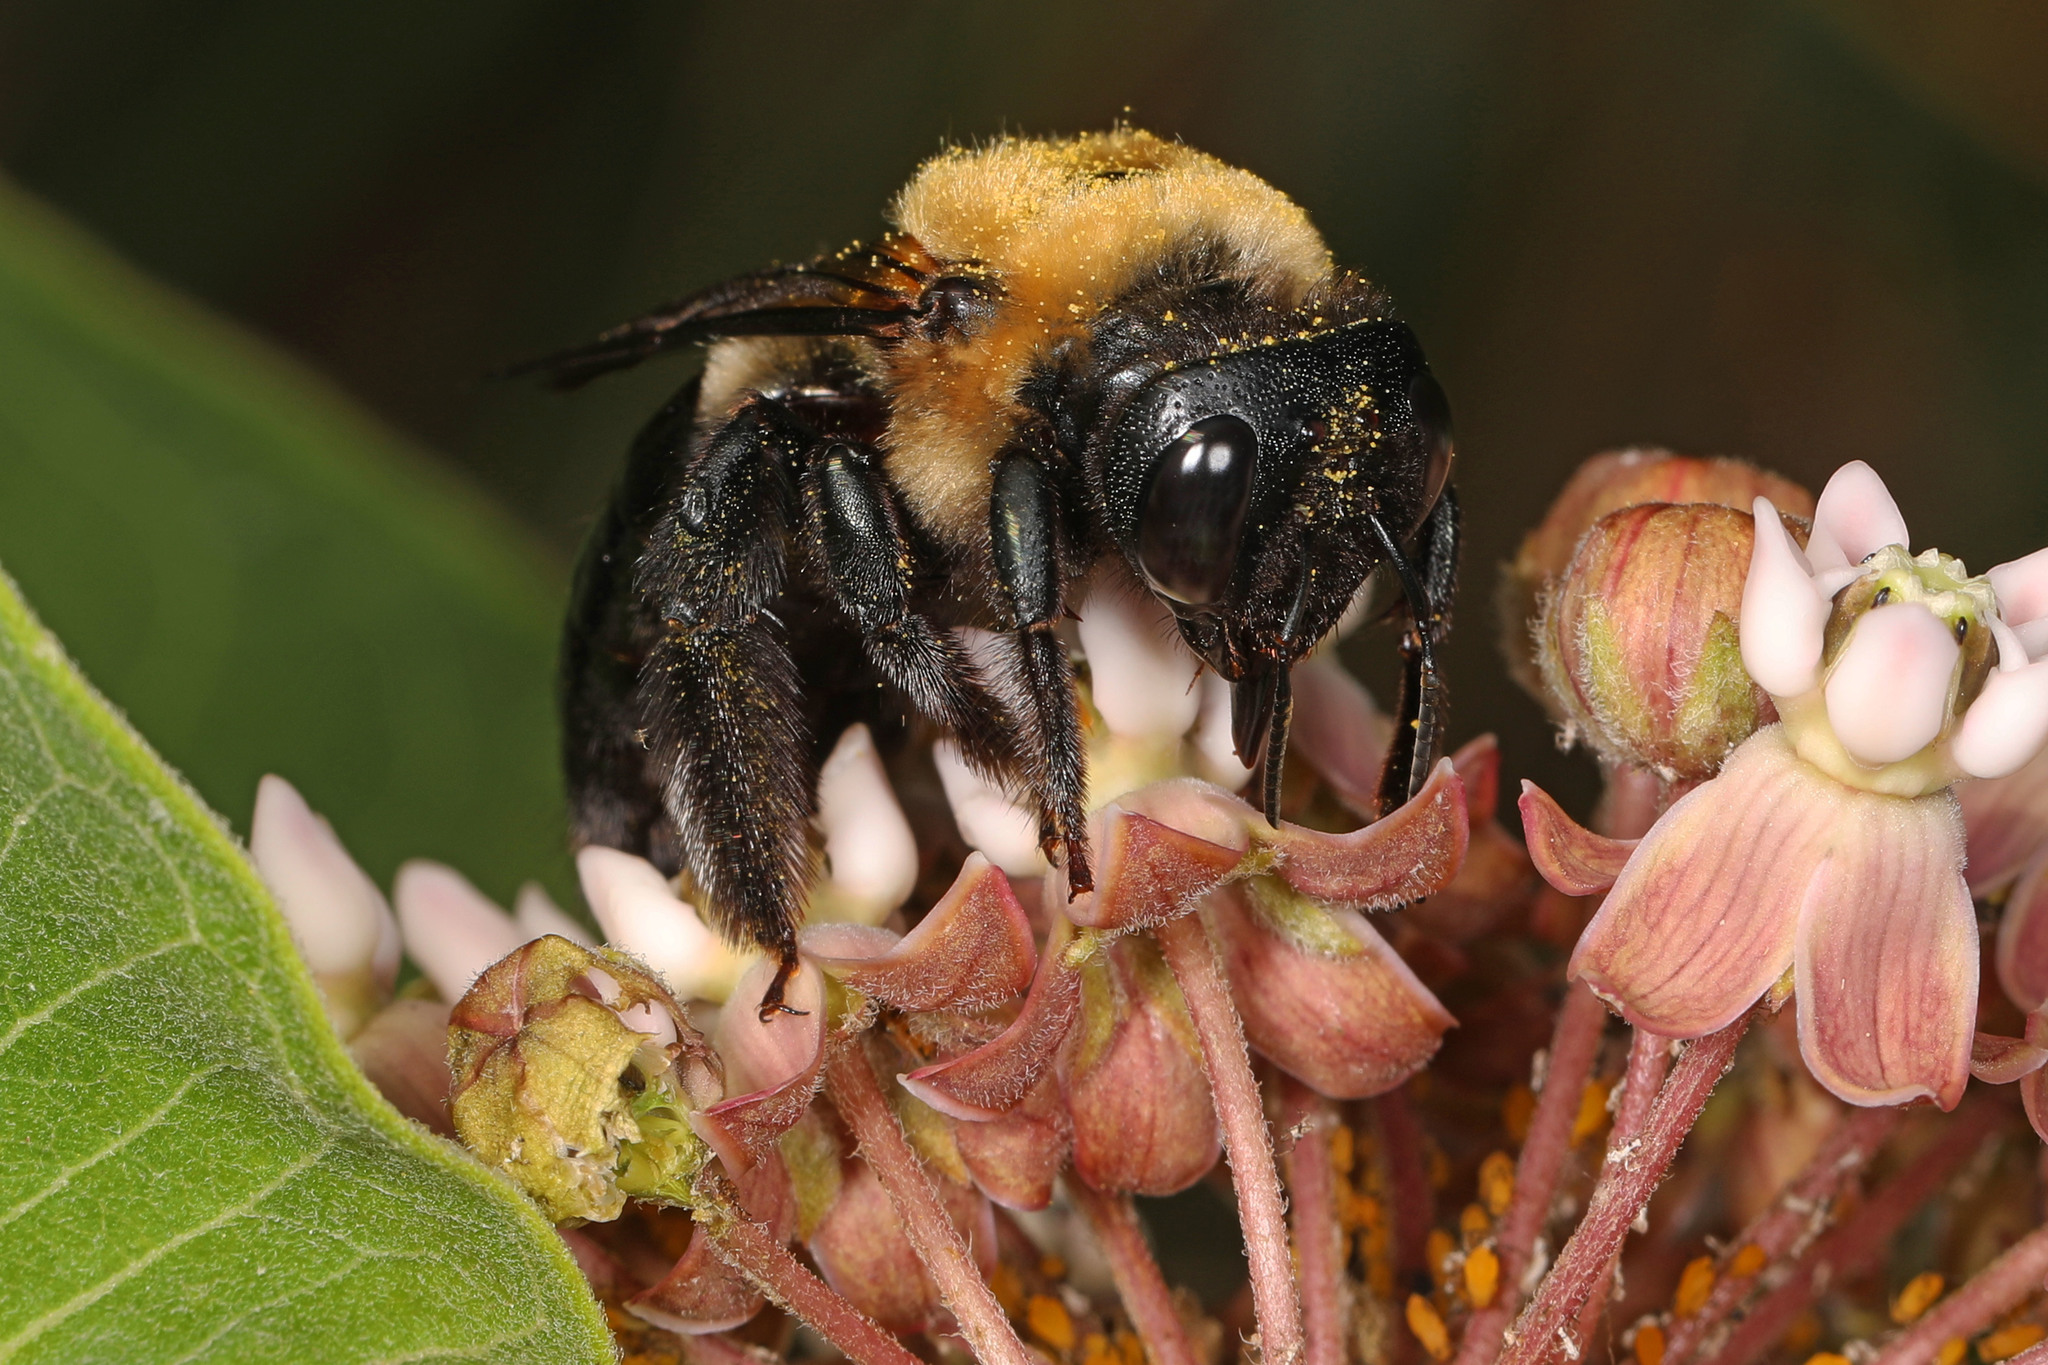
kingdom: Animalia
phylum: Arthropoda
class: Insecta
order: Hymenoptera
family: Apidae
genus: Xylocopa
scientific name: Xylocopa virginica
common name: Carpenter bee
